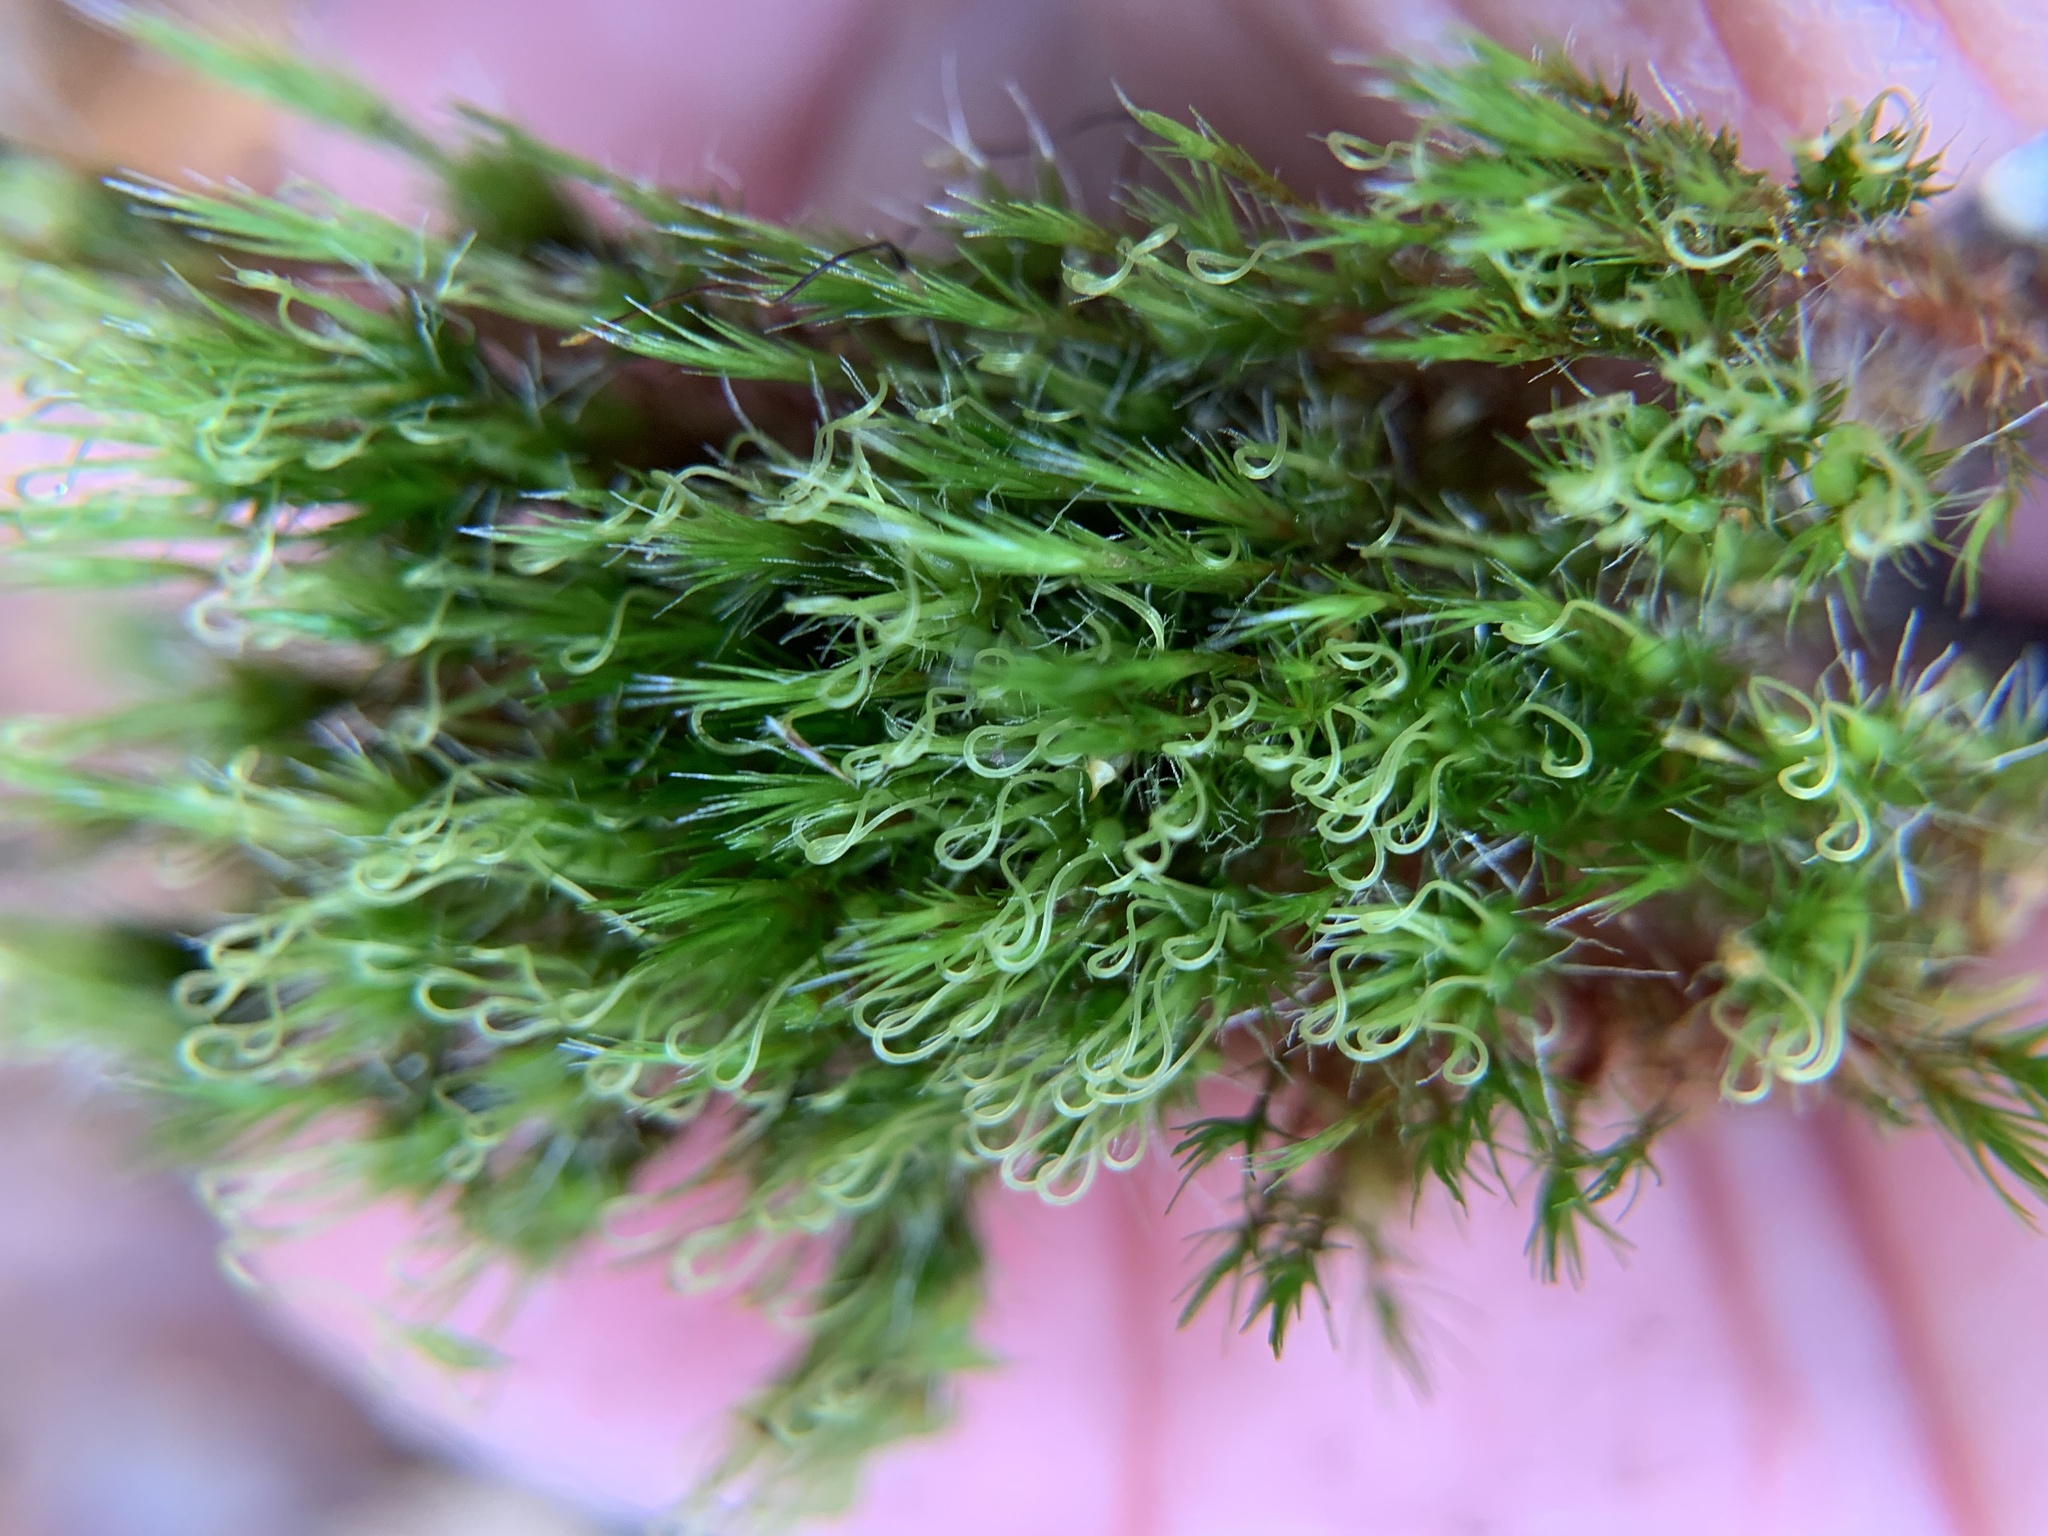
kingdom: Plantae
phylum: Bryophyta
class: Bryopsida
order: Dicranales
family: Leucobryaceae
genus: Campylopus
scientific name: Campylopus introflexus
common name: Heath star moss
